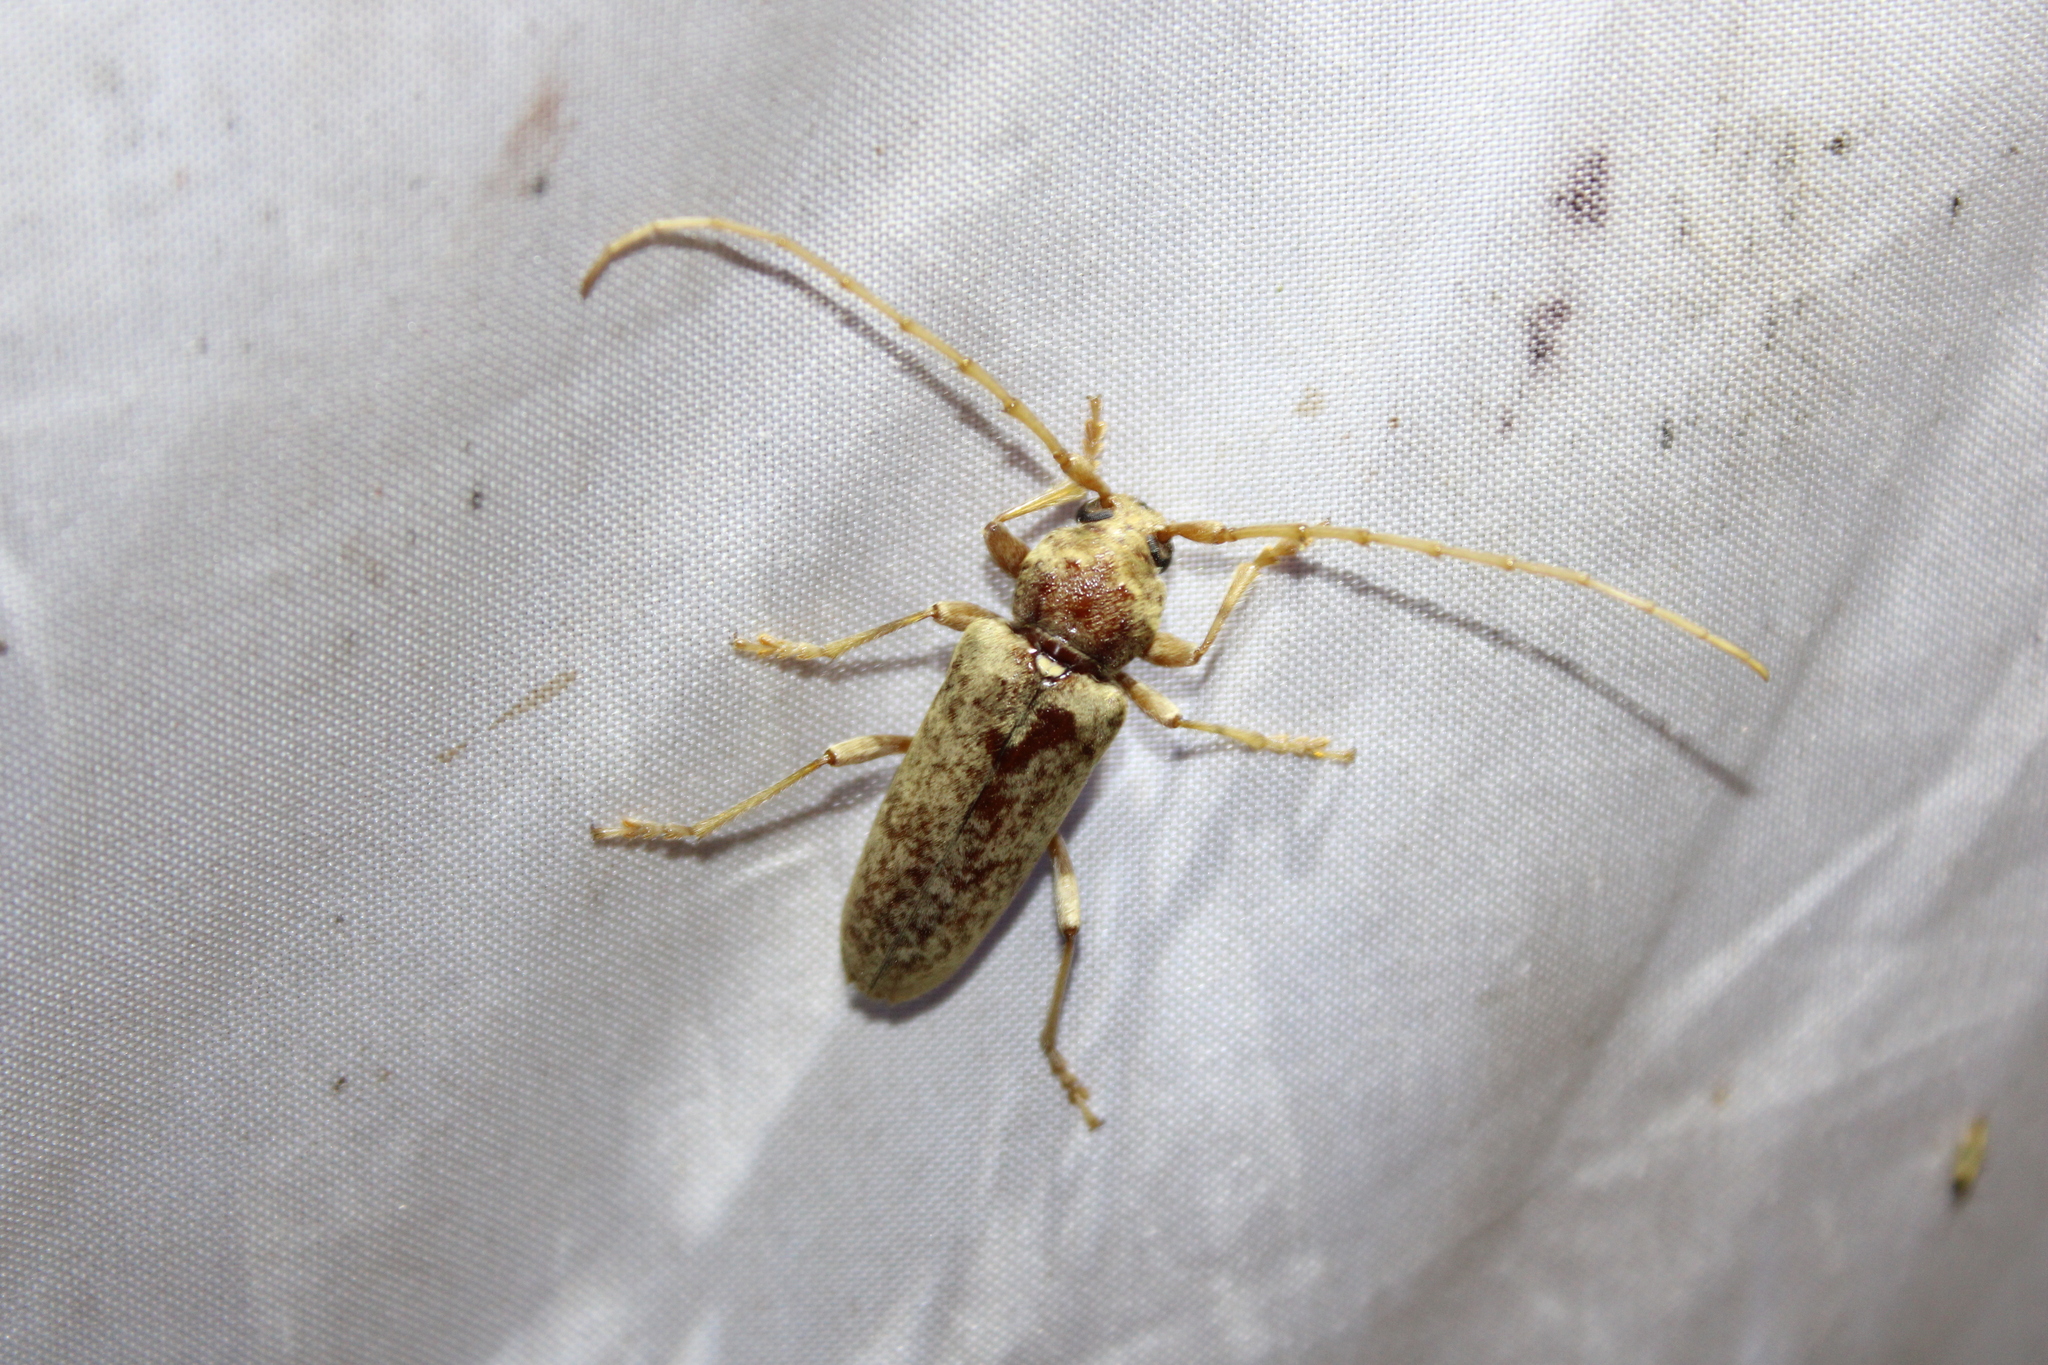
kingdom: Animalia
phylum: Arthropoda
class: Insecta
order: Coleoptera
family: Cerambycidae
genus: Enaphalodes
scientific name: Enaphalodes rufulus
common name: Red oak borer
